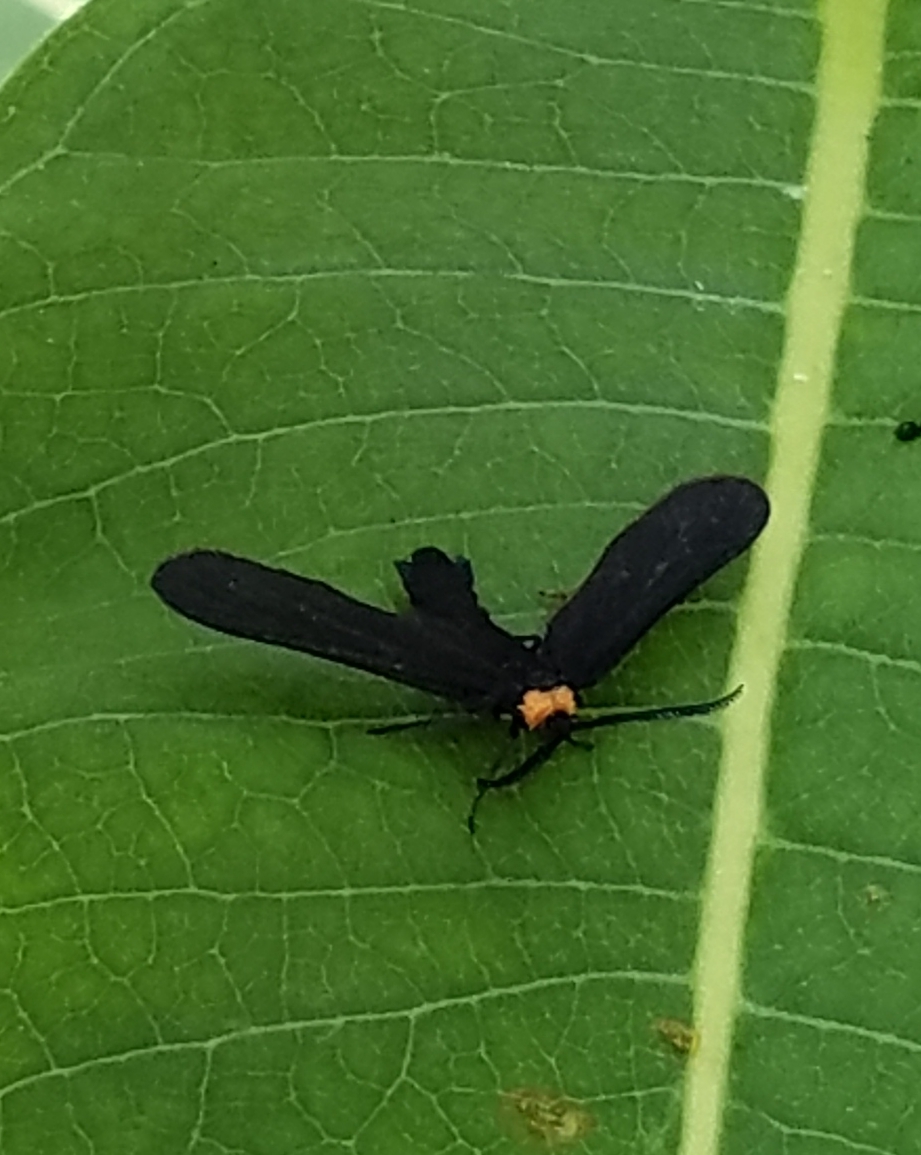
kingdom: Animalia
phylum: Arthropoda
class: Insecta
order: Lepidoptera
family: Zygaenidae
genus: Harrisina
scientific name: Harrisina americana
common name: Grapeleaf skeletonizer moth
